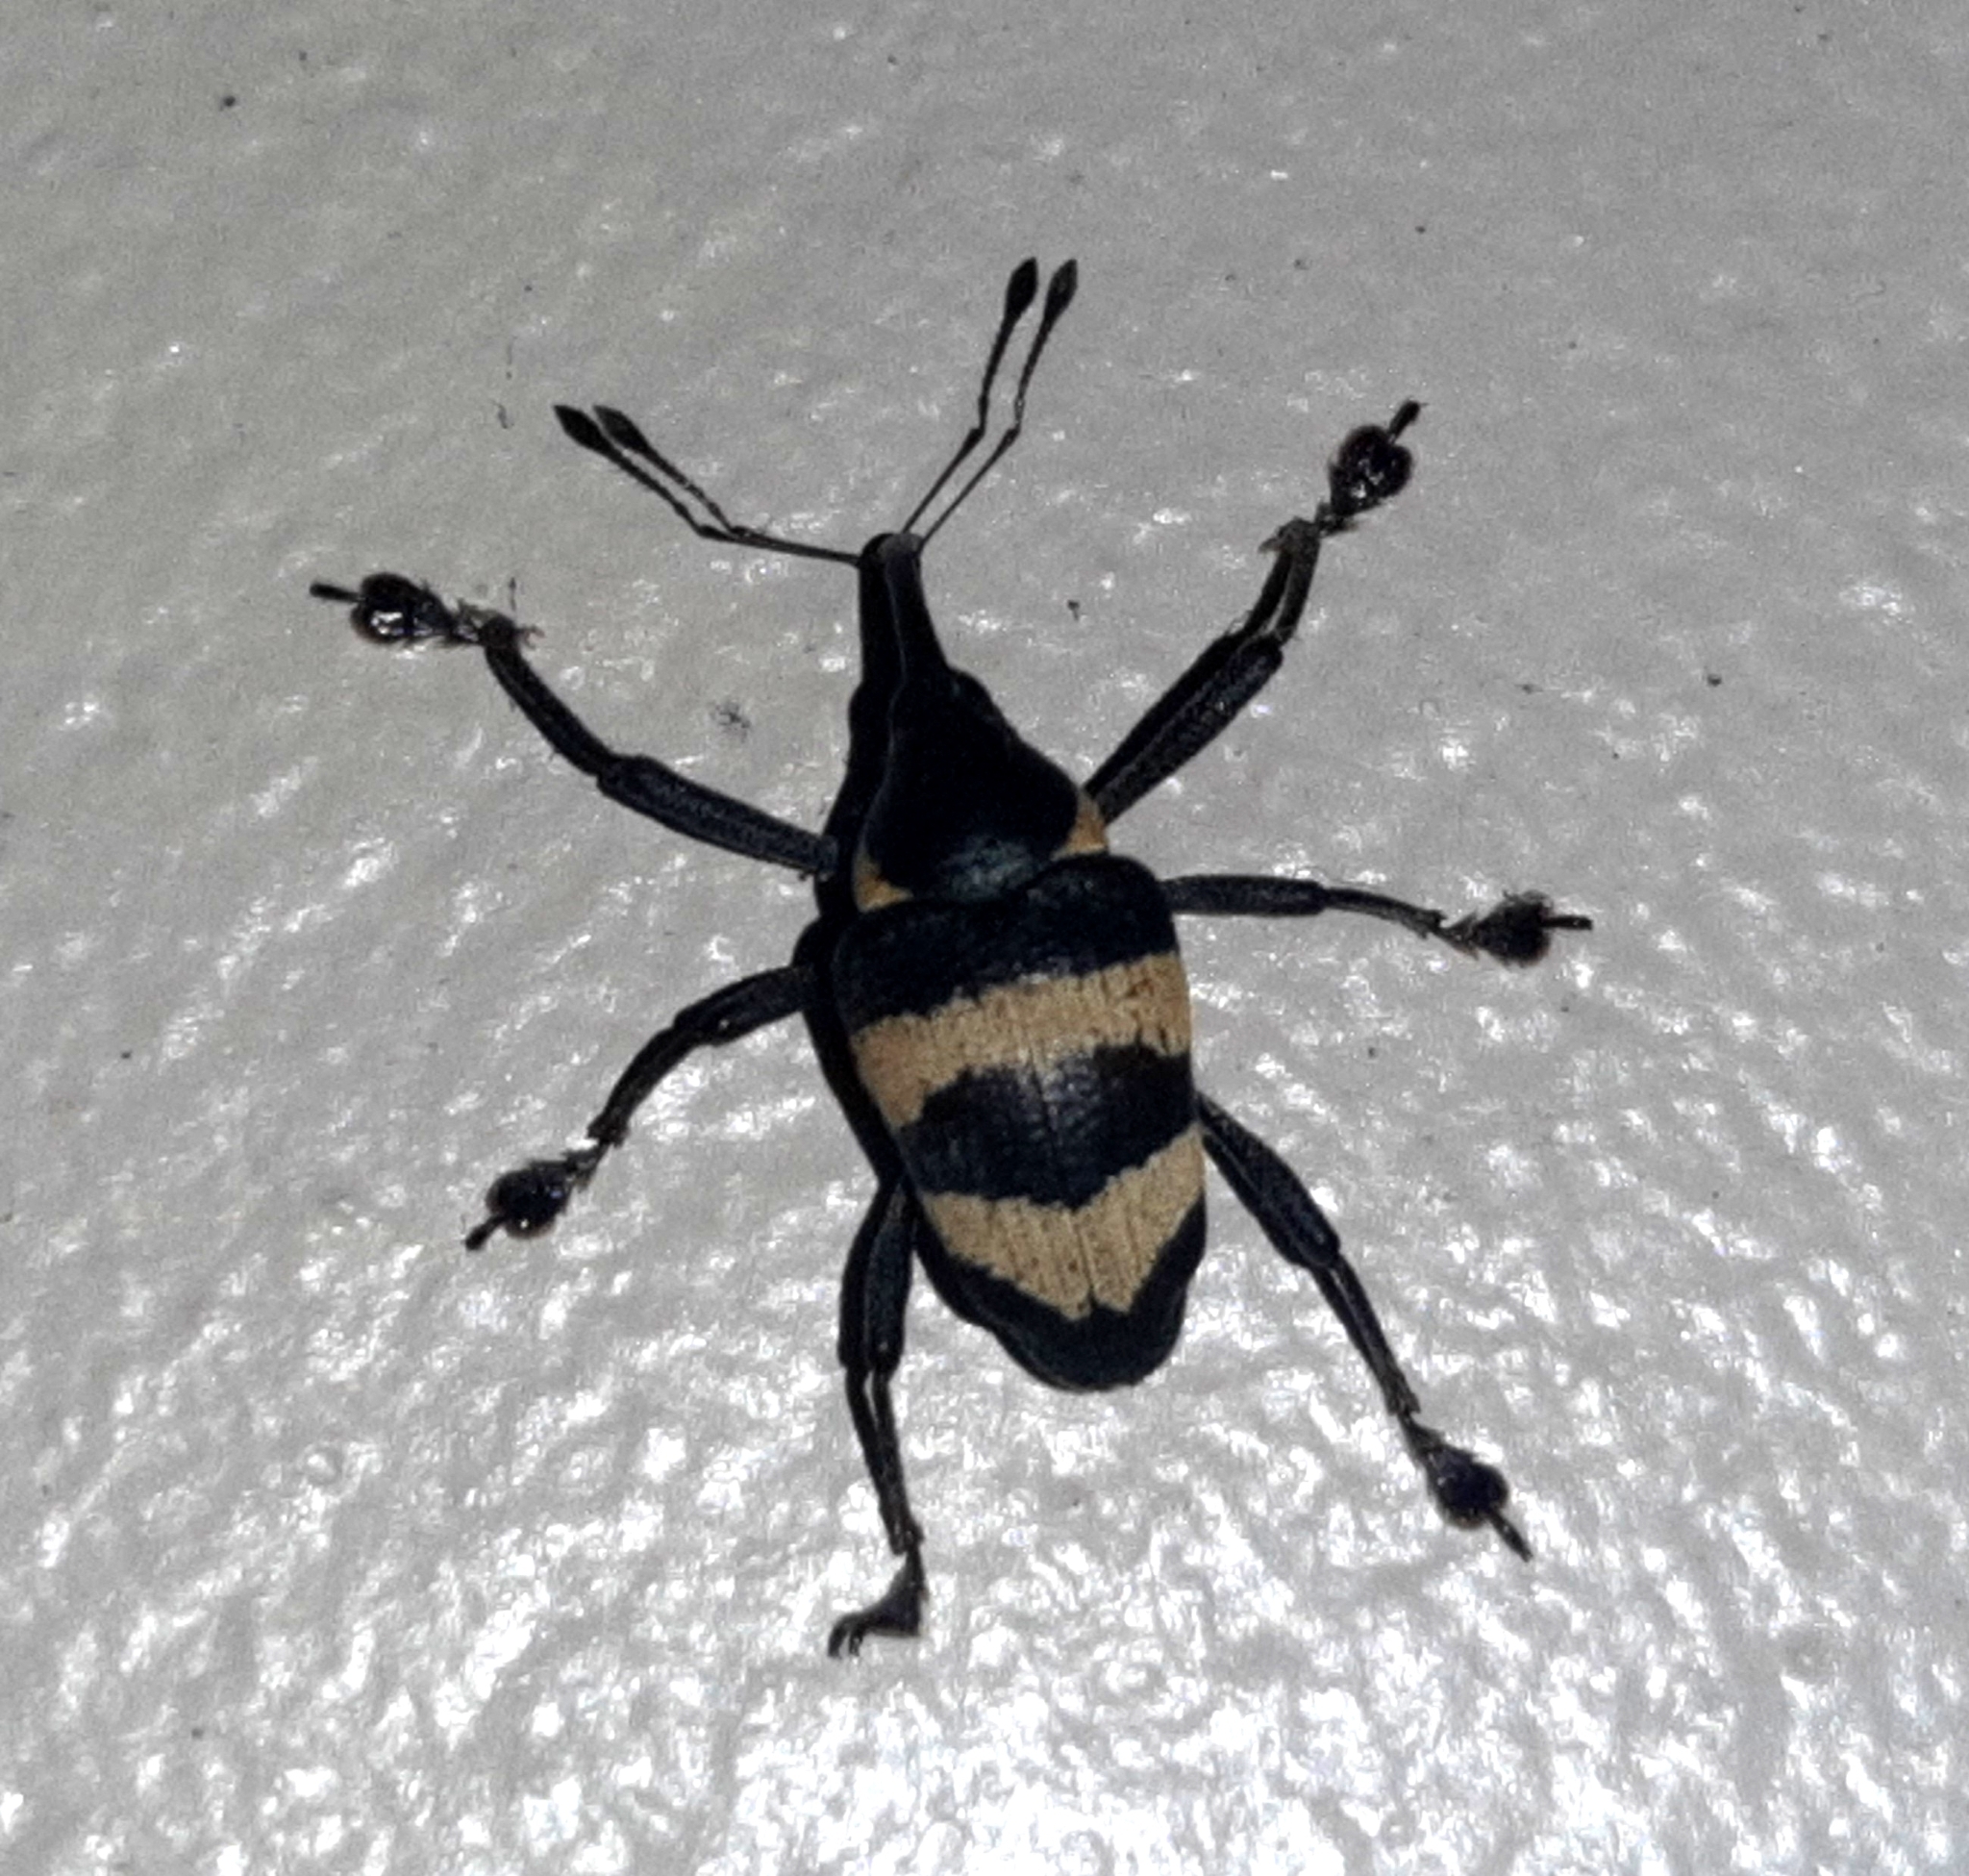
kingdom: Animalia
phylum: Arthropoda
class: Insecta
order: Coleoptera
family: Curculionidae
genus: Cholus
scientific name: Cholus costaricensis
